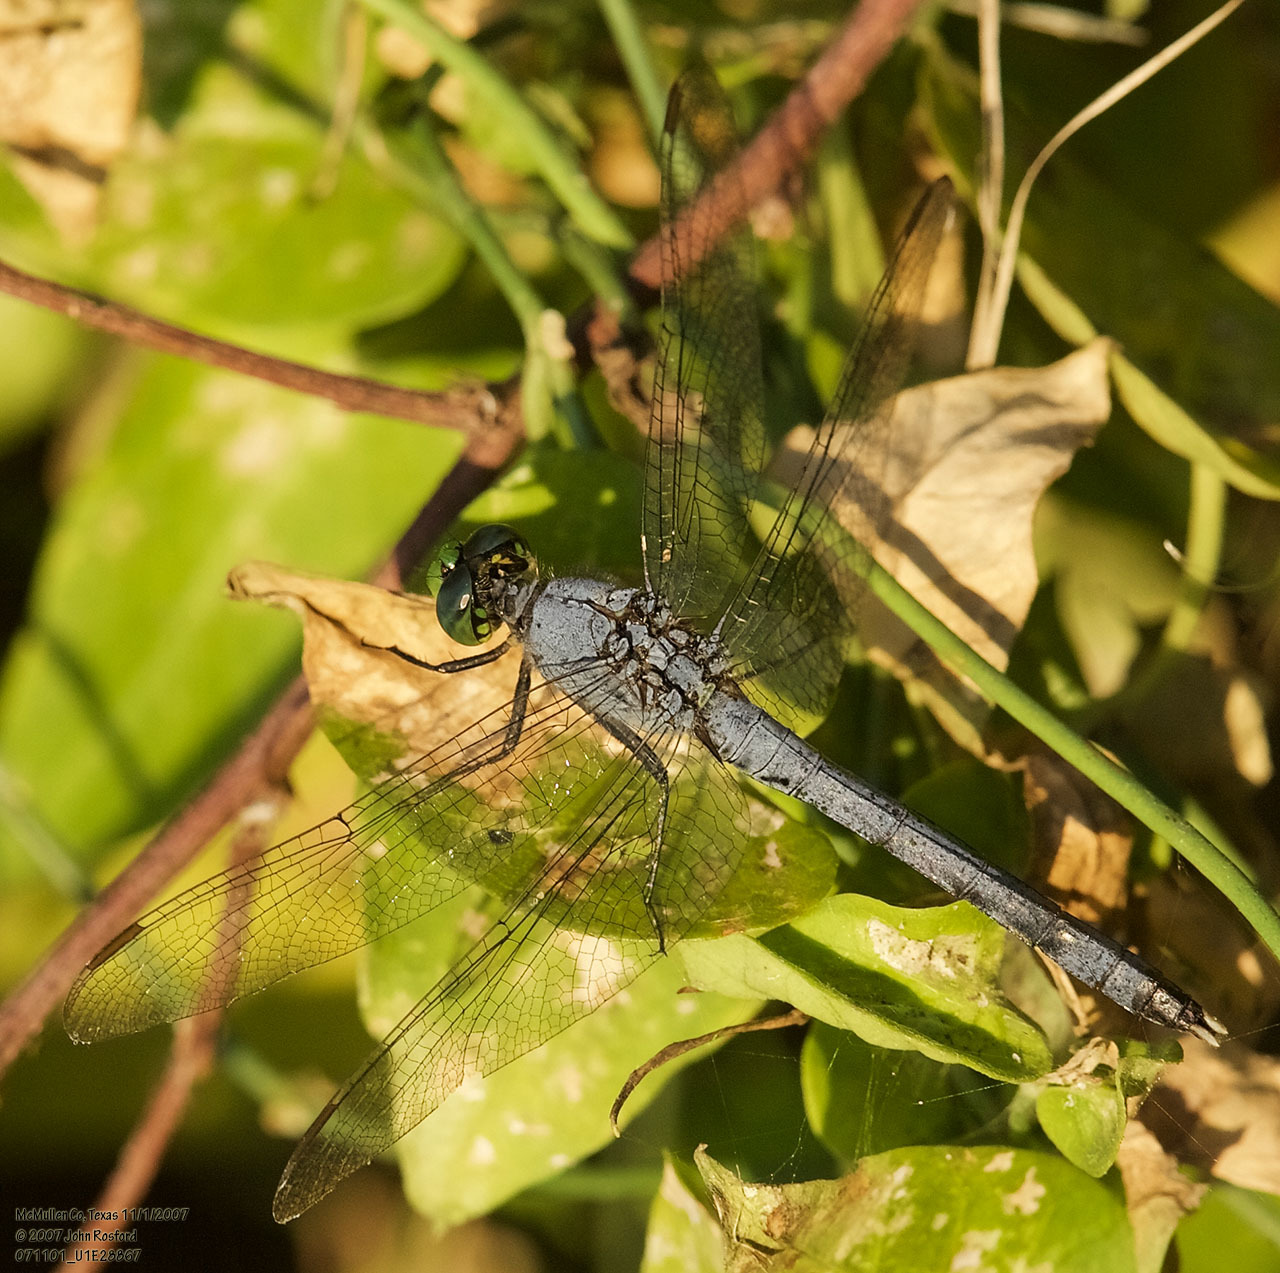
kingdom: Animalia
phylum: Arthropoda
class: Insecta
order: Odonata
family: Libellulidae
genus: Erythemis
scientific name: Erythemis simplicicollis
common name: Eastern pondhawk
